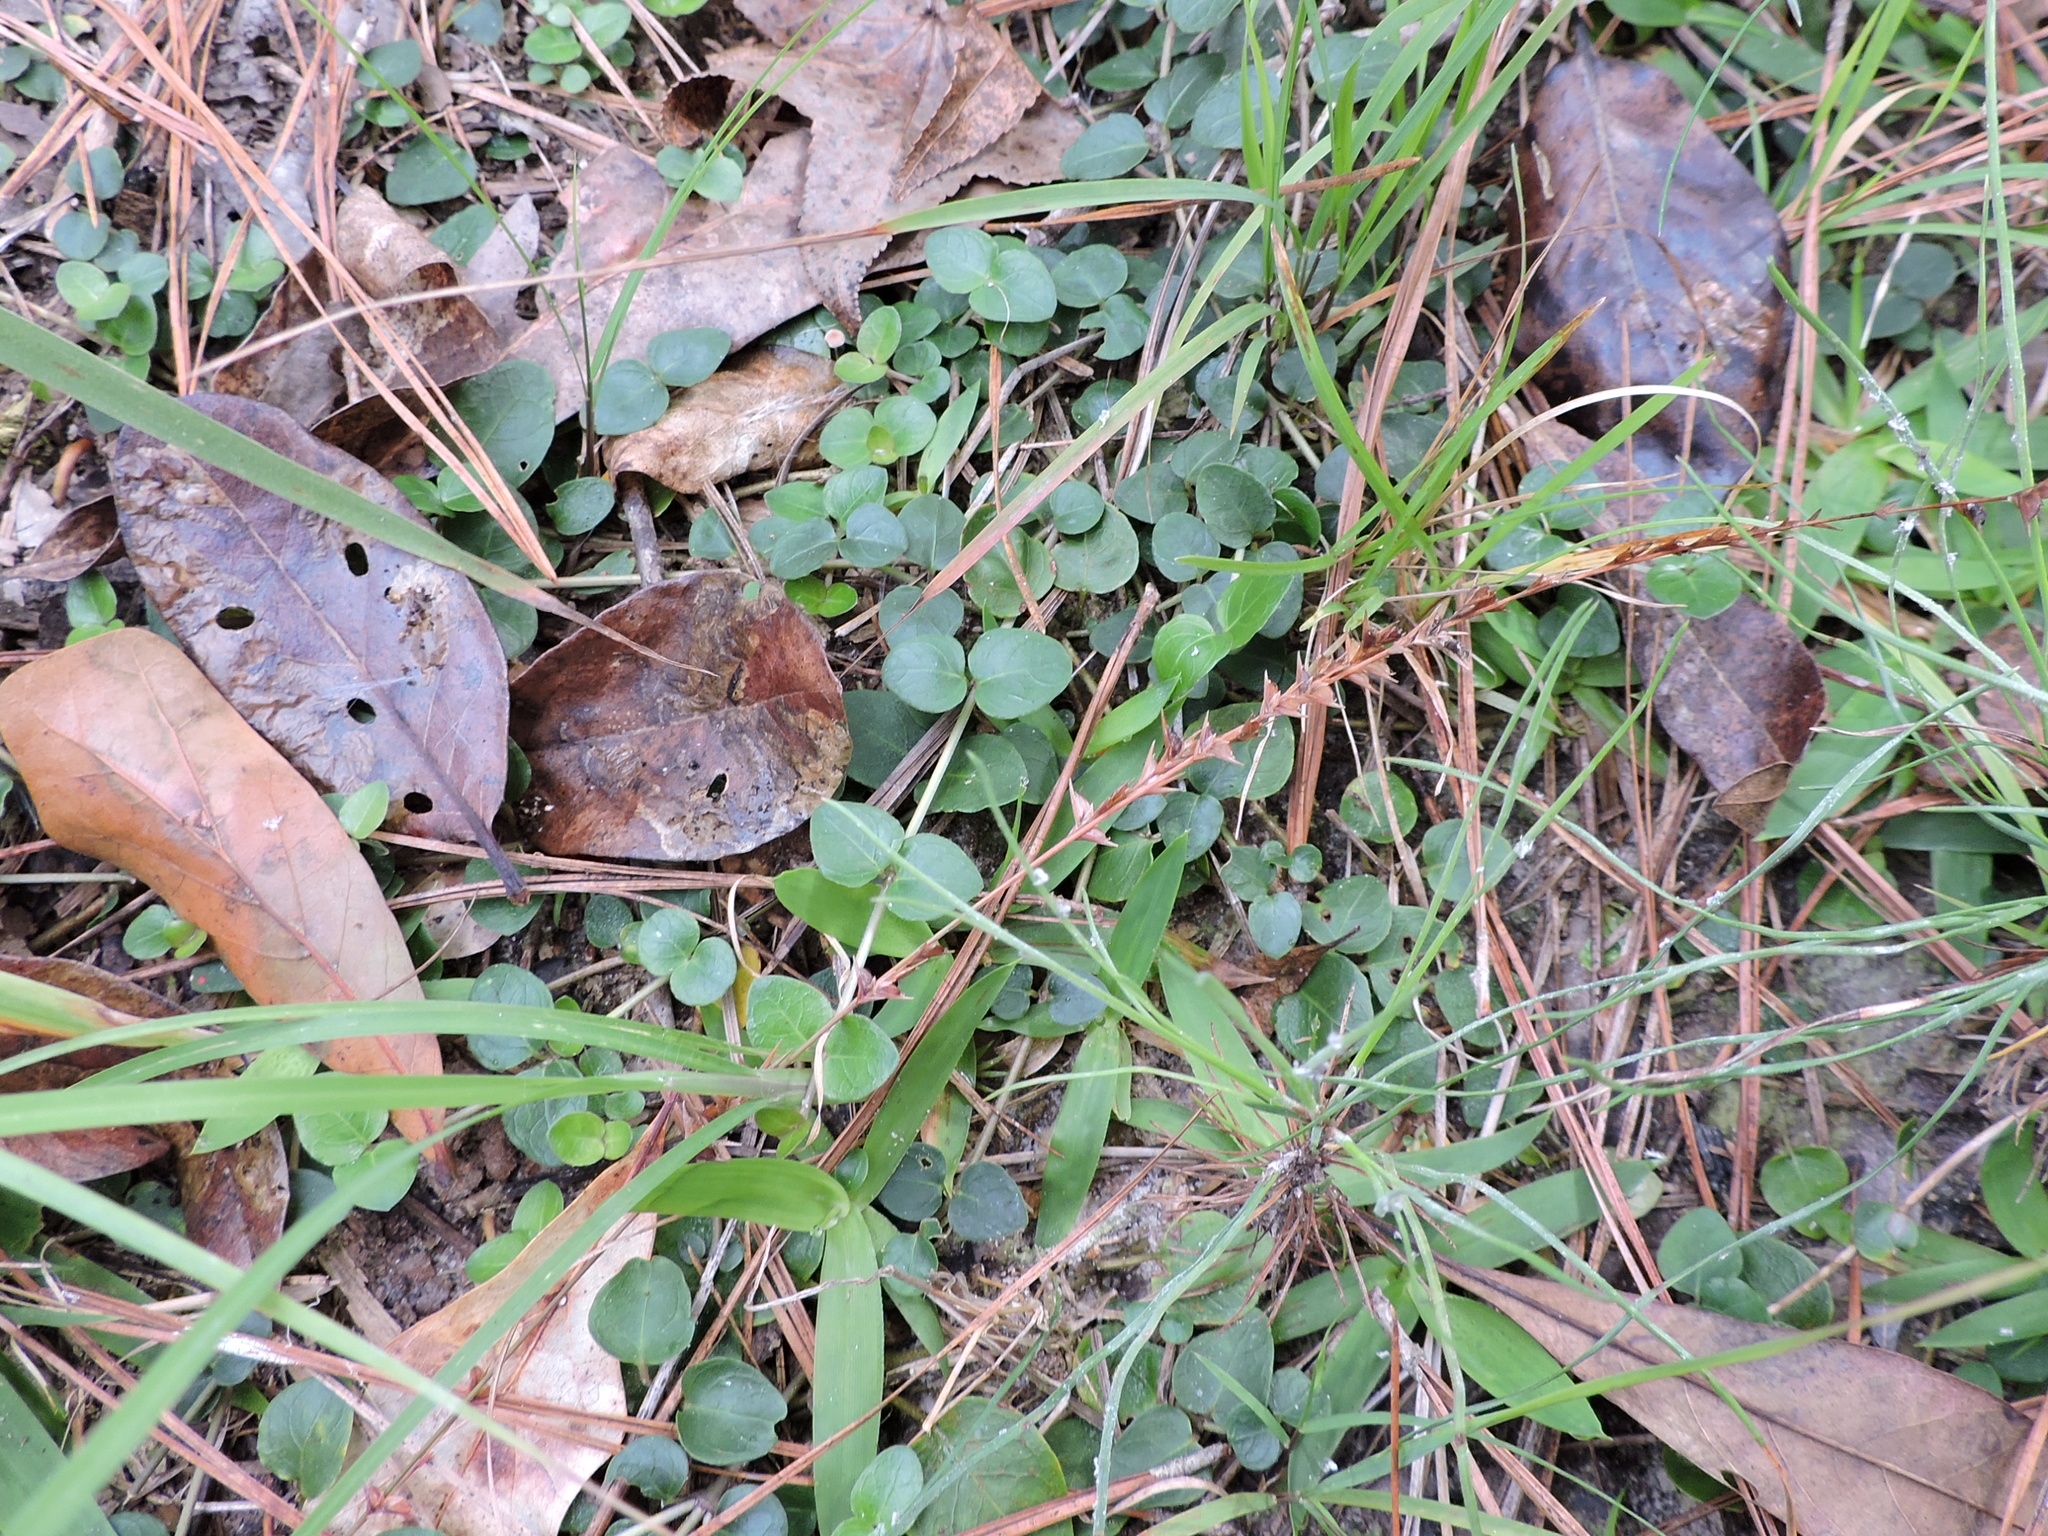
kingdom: Plantae
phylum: Tracheophyta
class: Magnoliopsida
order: Gentianales
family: Rubiaceae
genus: Mitchella
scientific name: Mitchella repens
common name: Partridge-berry
